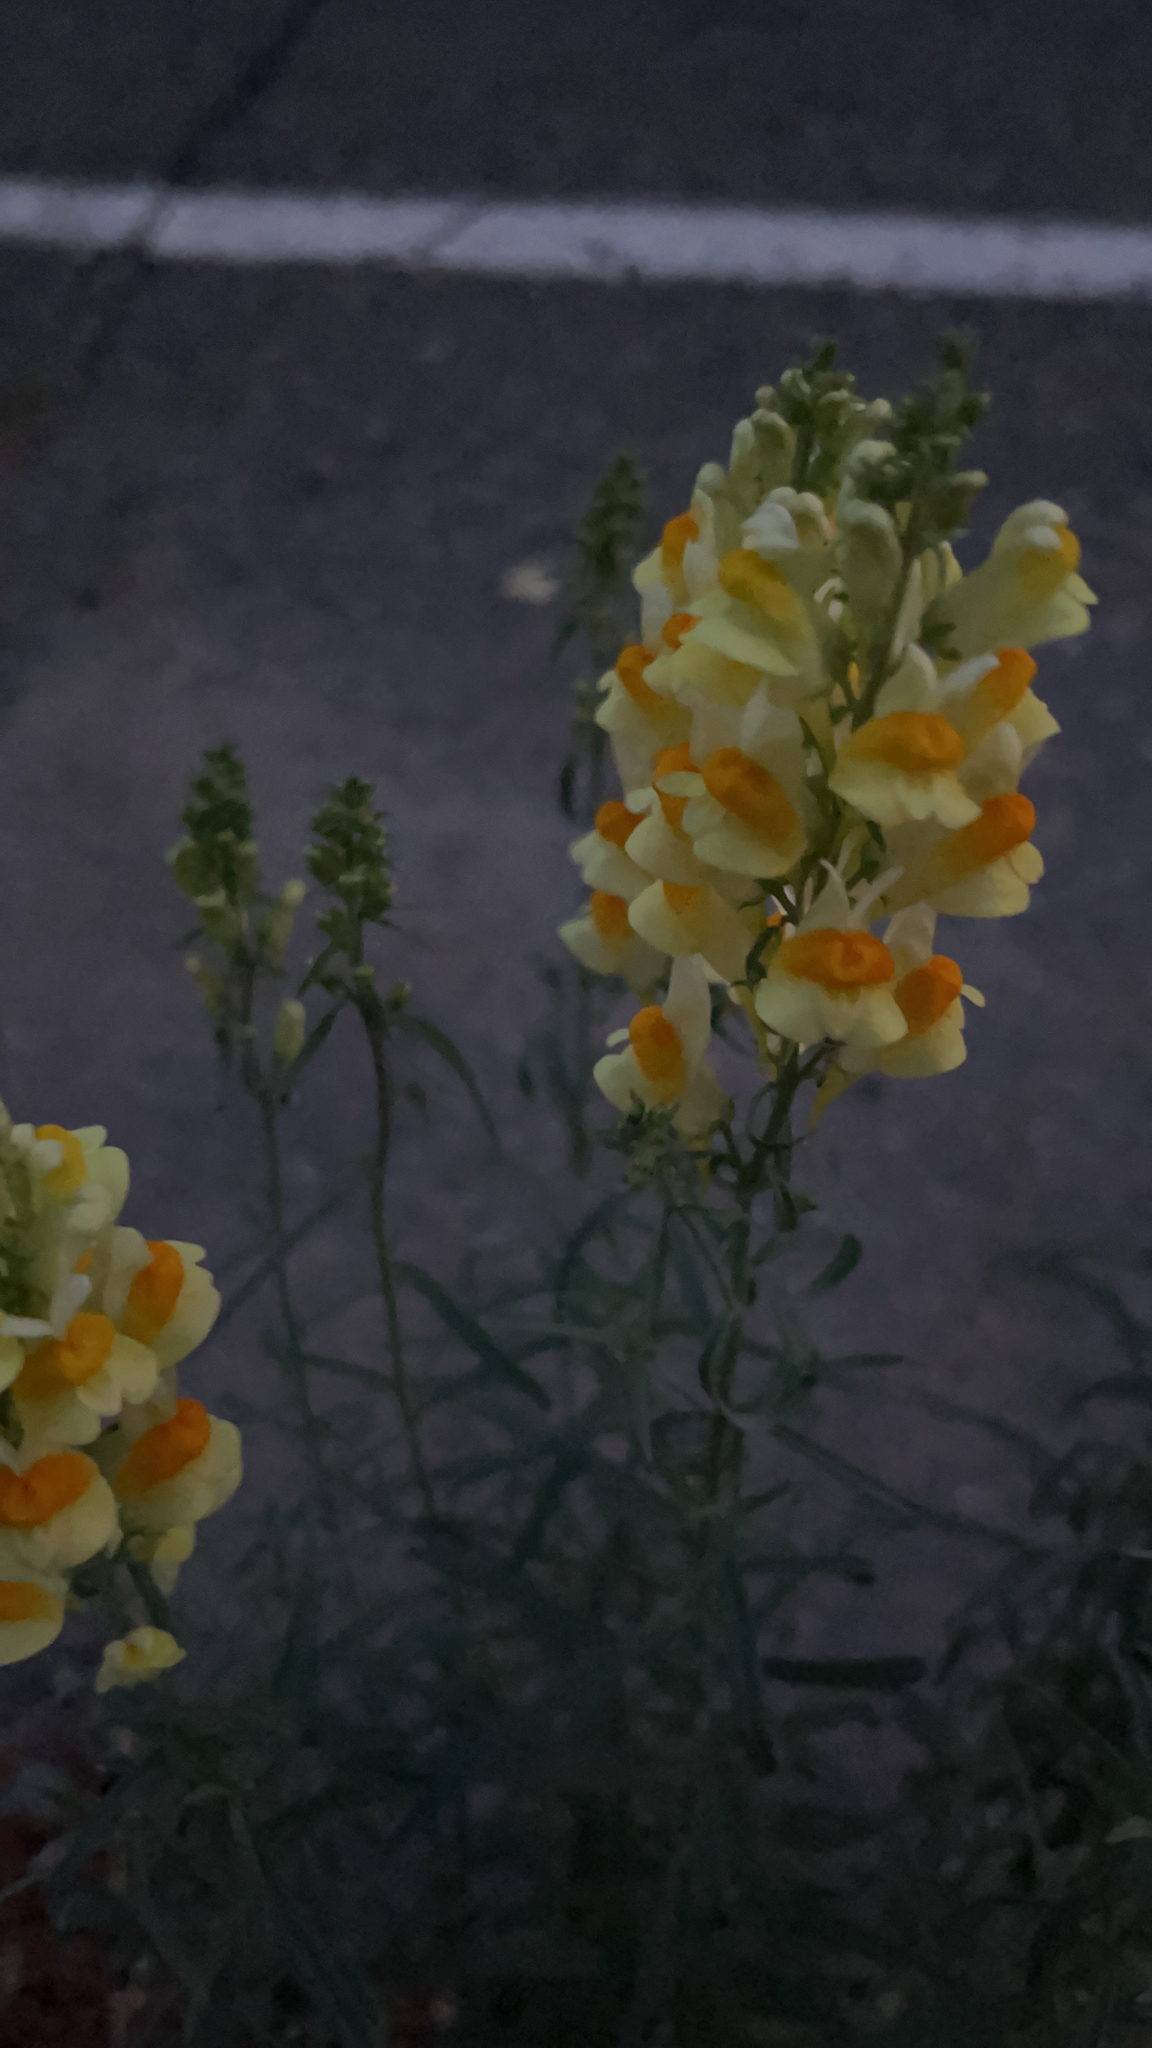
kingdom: Plantae
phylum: Tracheophyta
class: Magnoliopsida
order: Lamiales
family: Plantaginaceae
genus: Linaria
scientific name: Linaria vulgaris
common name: Butter and eggs
